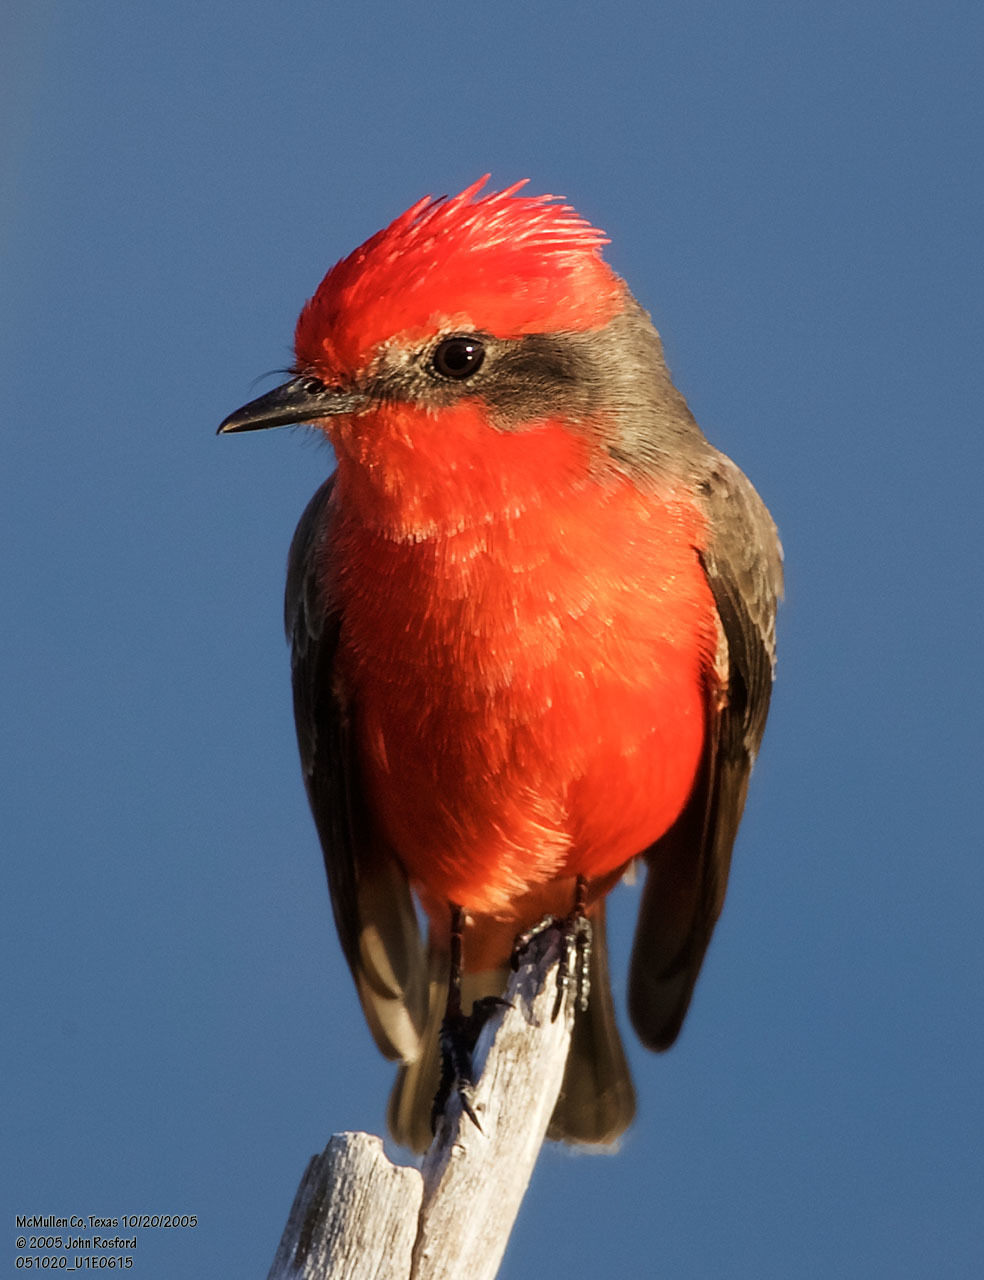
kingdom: Animalia
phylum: Chordata
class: Aves
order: Passeriformes
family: Tyrannidae
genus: Pyrocephalus
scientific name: Pyrocephalus rubinus
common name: Vermilion flycatcher
